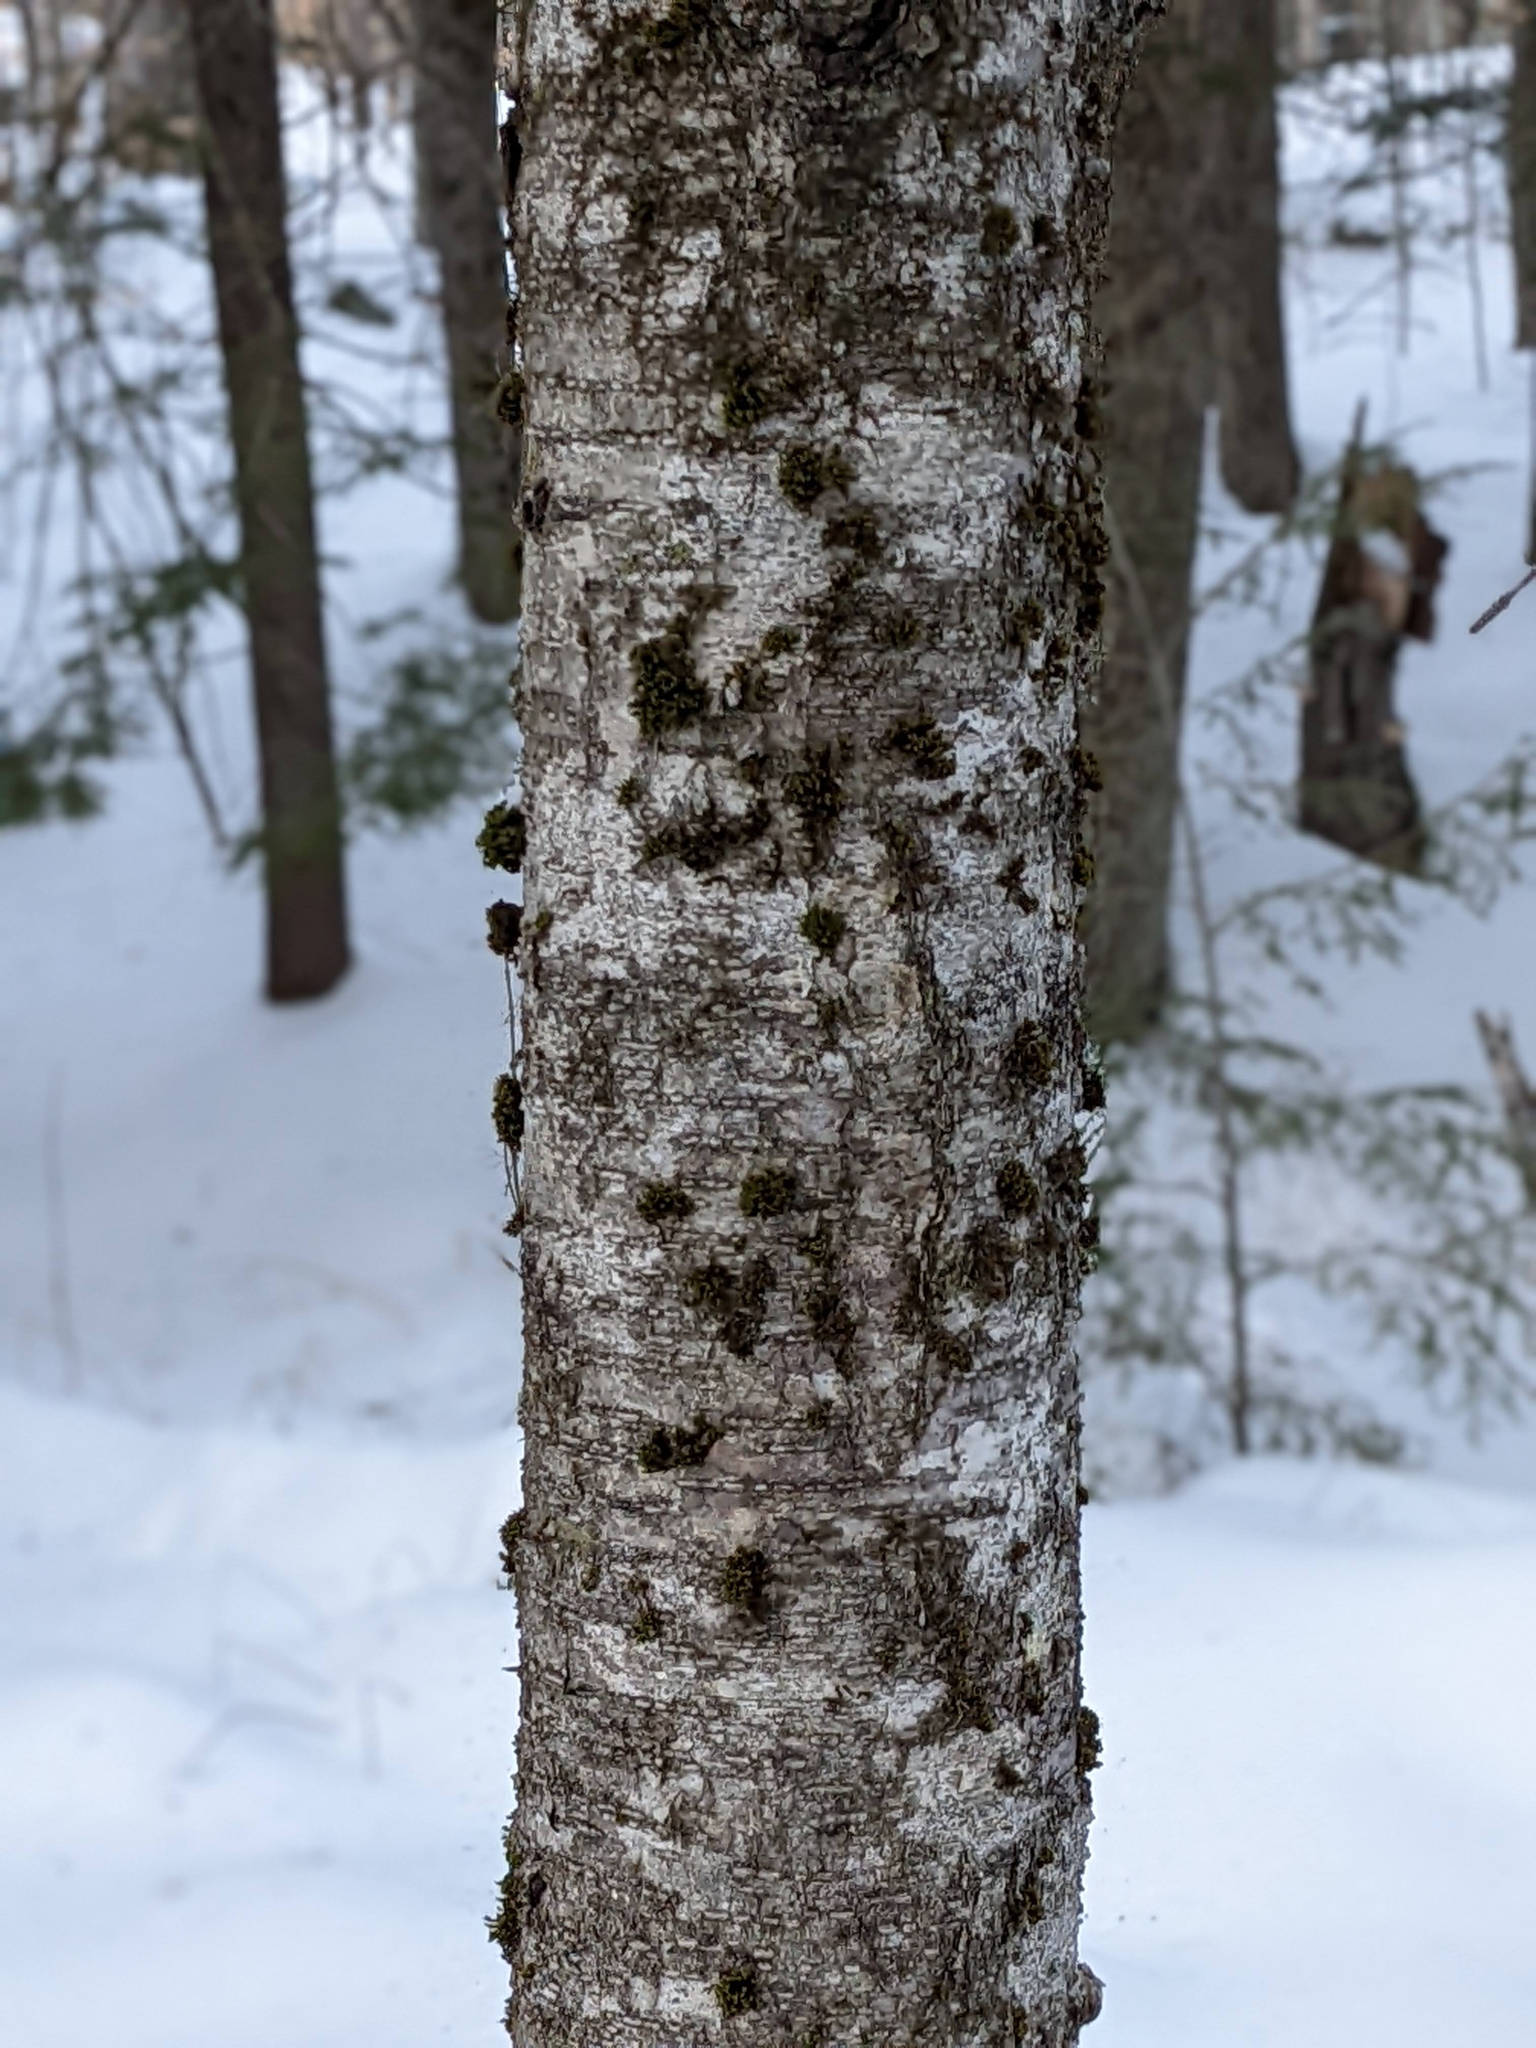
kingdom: Plantae
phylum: Bryophyta
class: Bryopsida
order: Orthotrichales
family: Orthotrichaceae
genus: Ulota
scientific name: Ulota crispa
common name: Crisped pincushion moss
